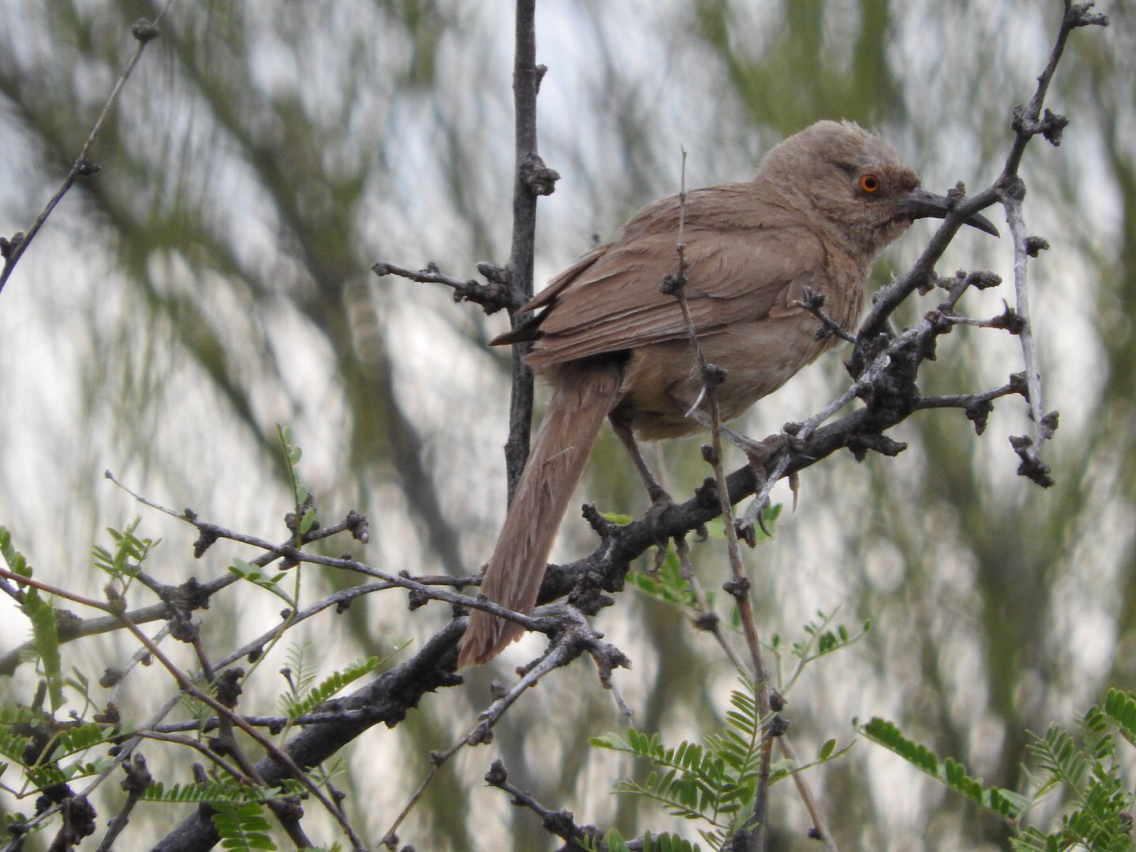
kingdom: Animalia
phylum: Chordata
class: Aves
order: Passeriformes
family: Mimidae
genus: Toxostoma
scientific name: Toxostoma curvirostre
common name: Curve-billed thrasher
